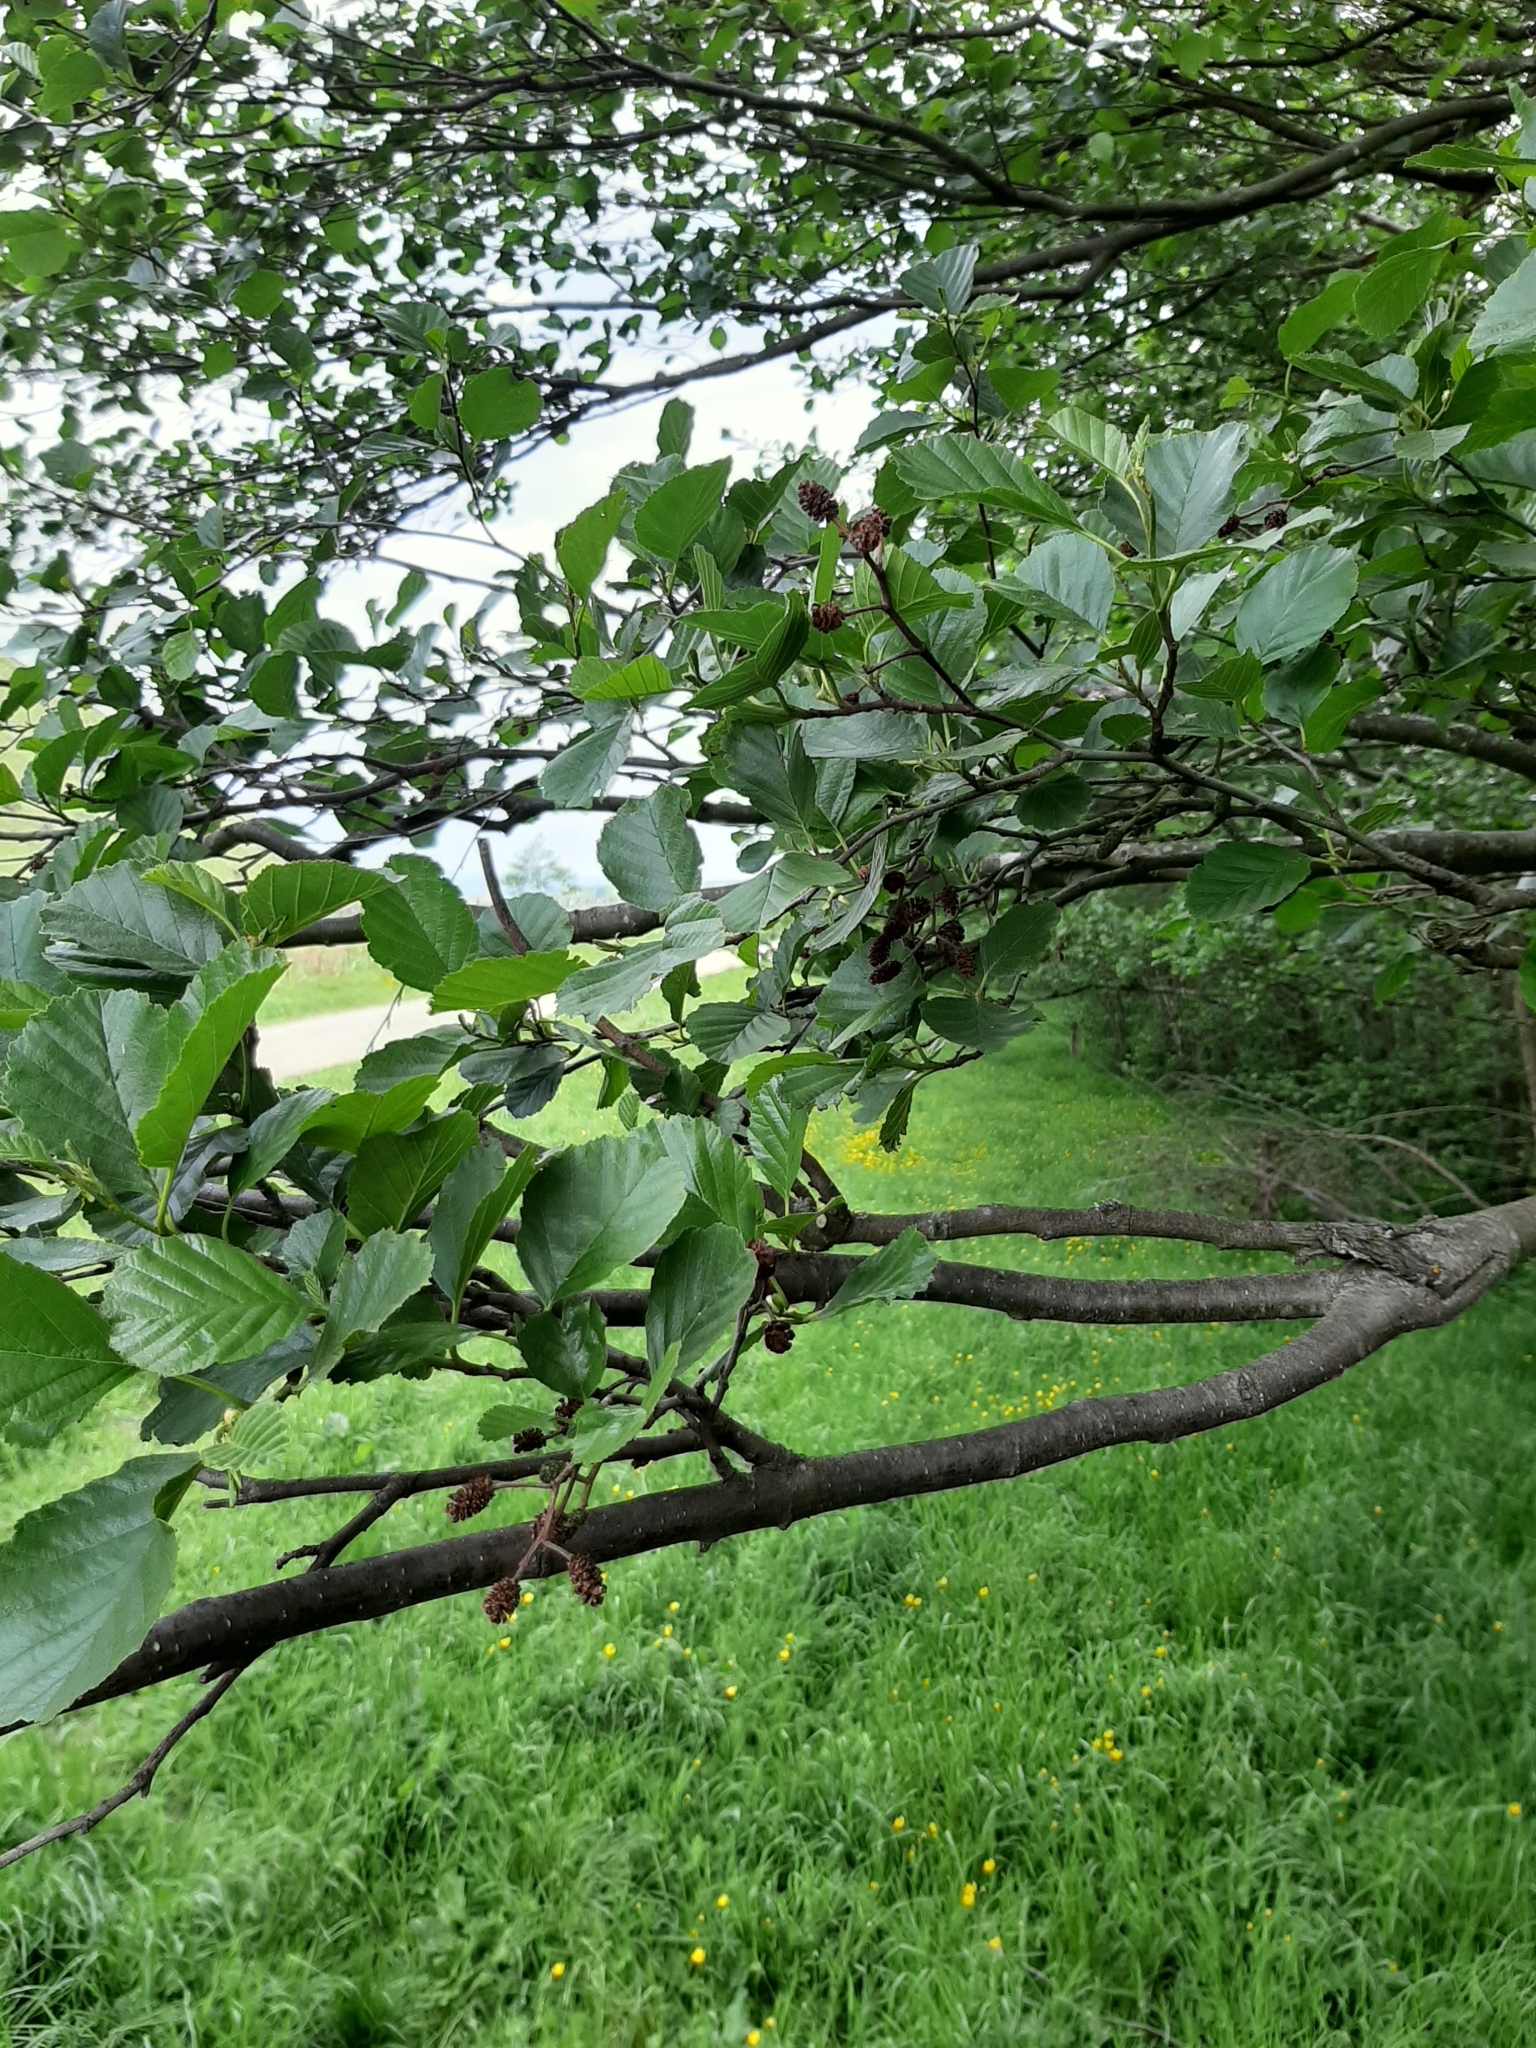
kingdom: Plantae
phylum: Tracheophyta
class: Magnoliopsida
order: Fagales
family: Betulaceae
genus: Alnus
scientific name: Alnus glutinosa
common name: Black alder
